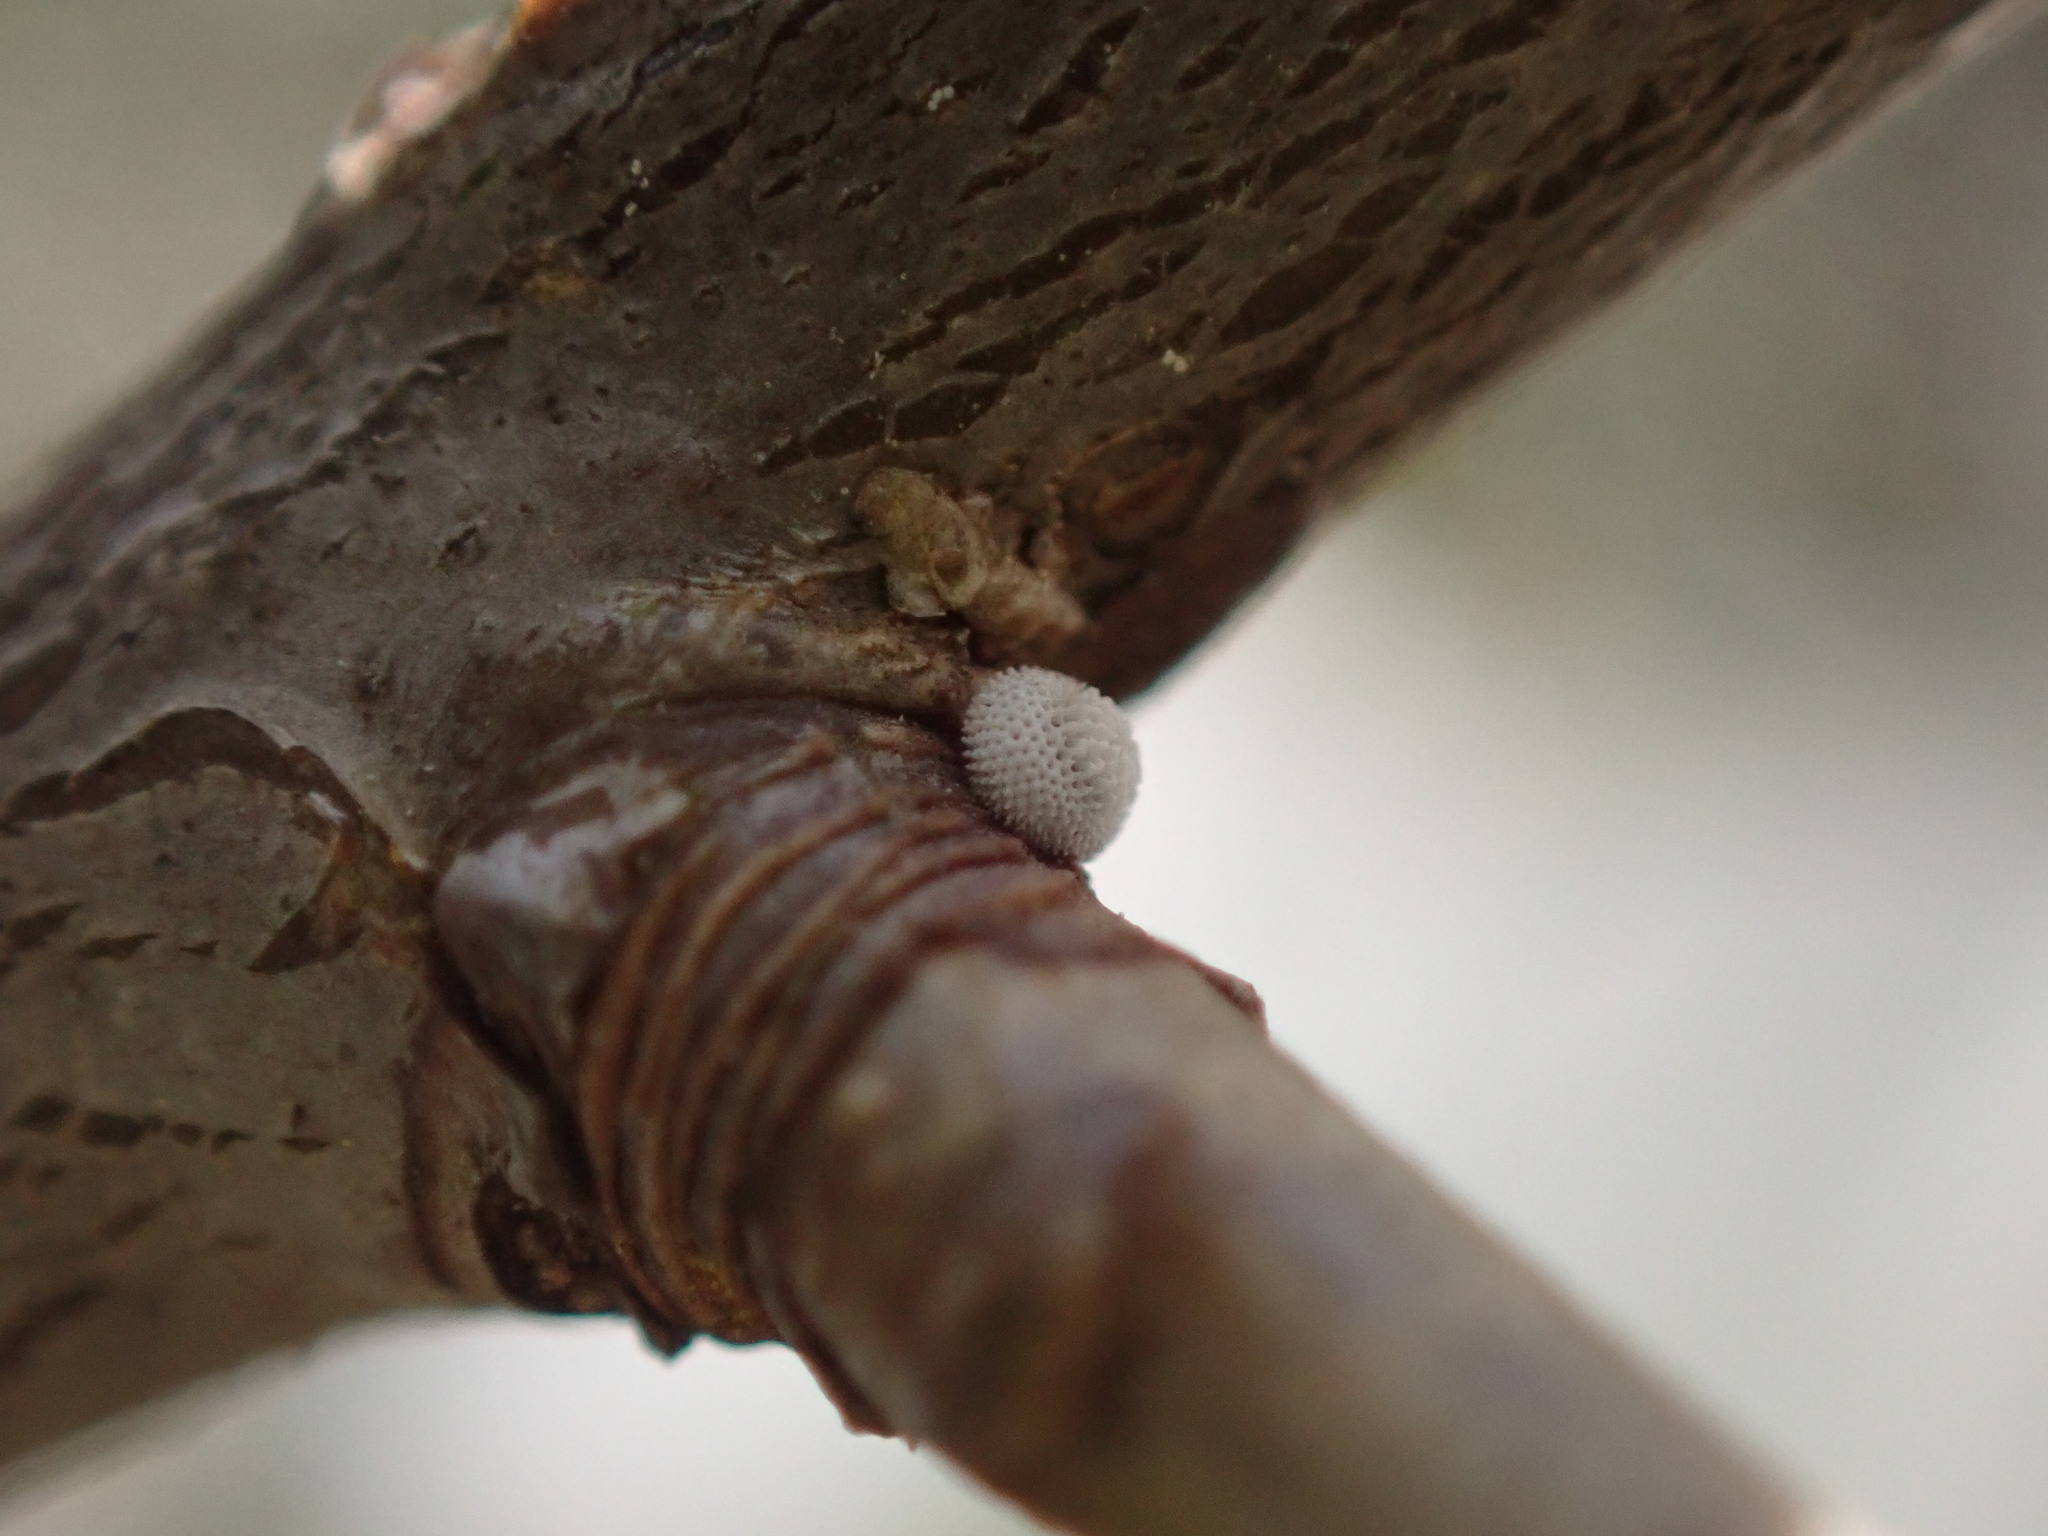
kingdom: Animalia
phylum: Arthropoda
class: Insecta
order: Lepidoptera
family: Lycaenidae
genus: Thecla
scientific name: Thecla betulae
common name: Brown hairstreak
